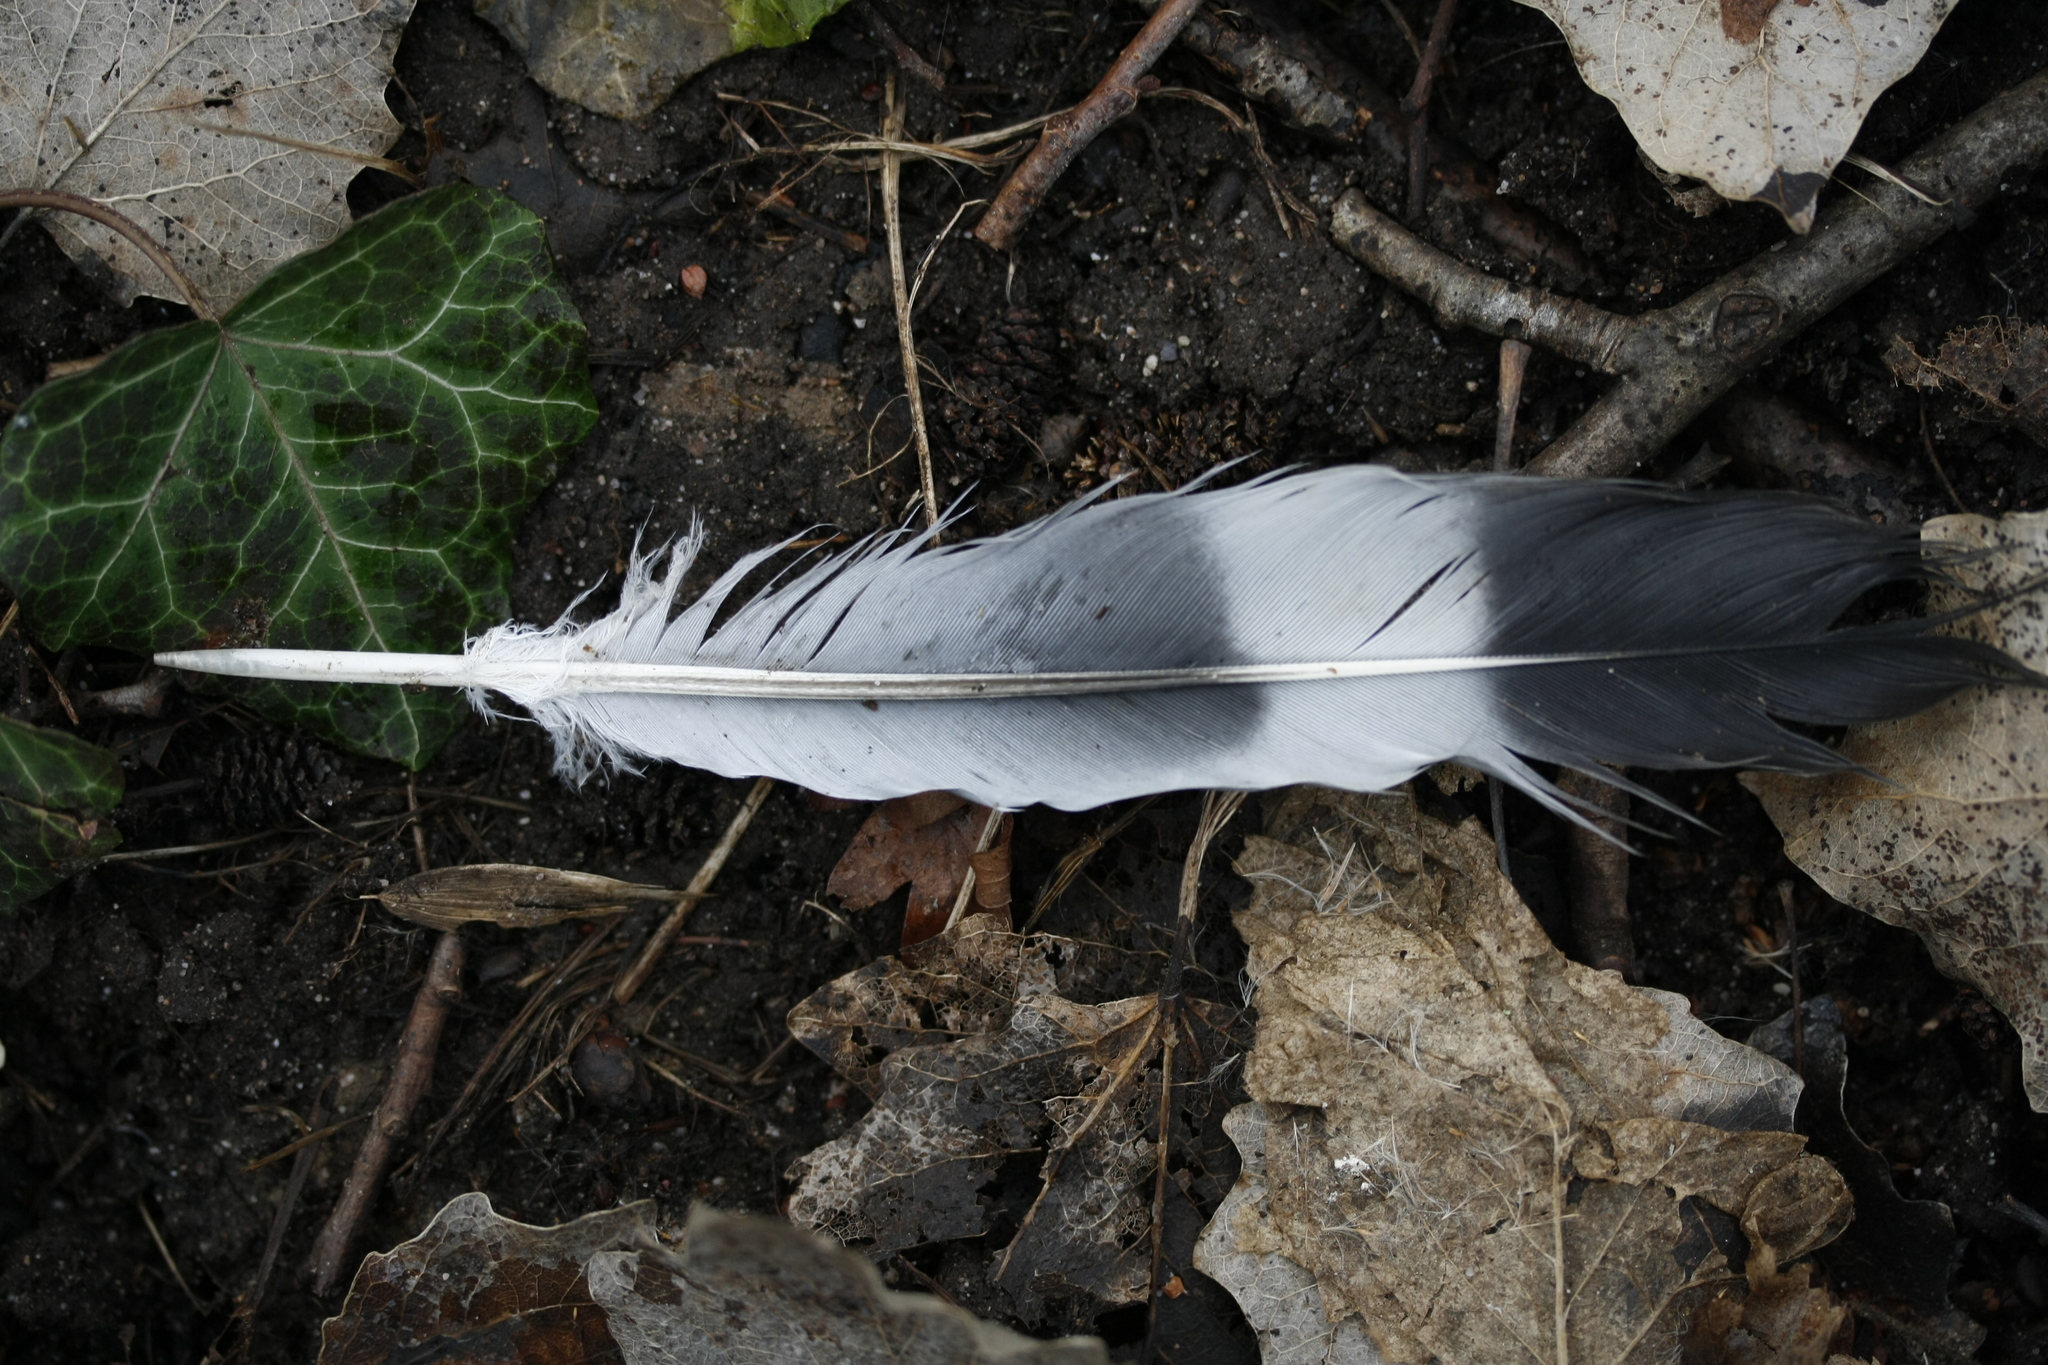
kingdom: Animalia
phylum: Chordata
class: Aves
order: Columbiformes
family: Columbidae
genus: Columba
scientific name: Columba palumbus
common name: Common wood pigeon
